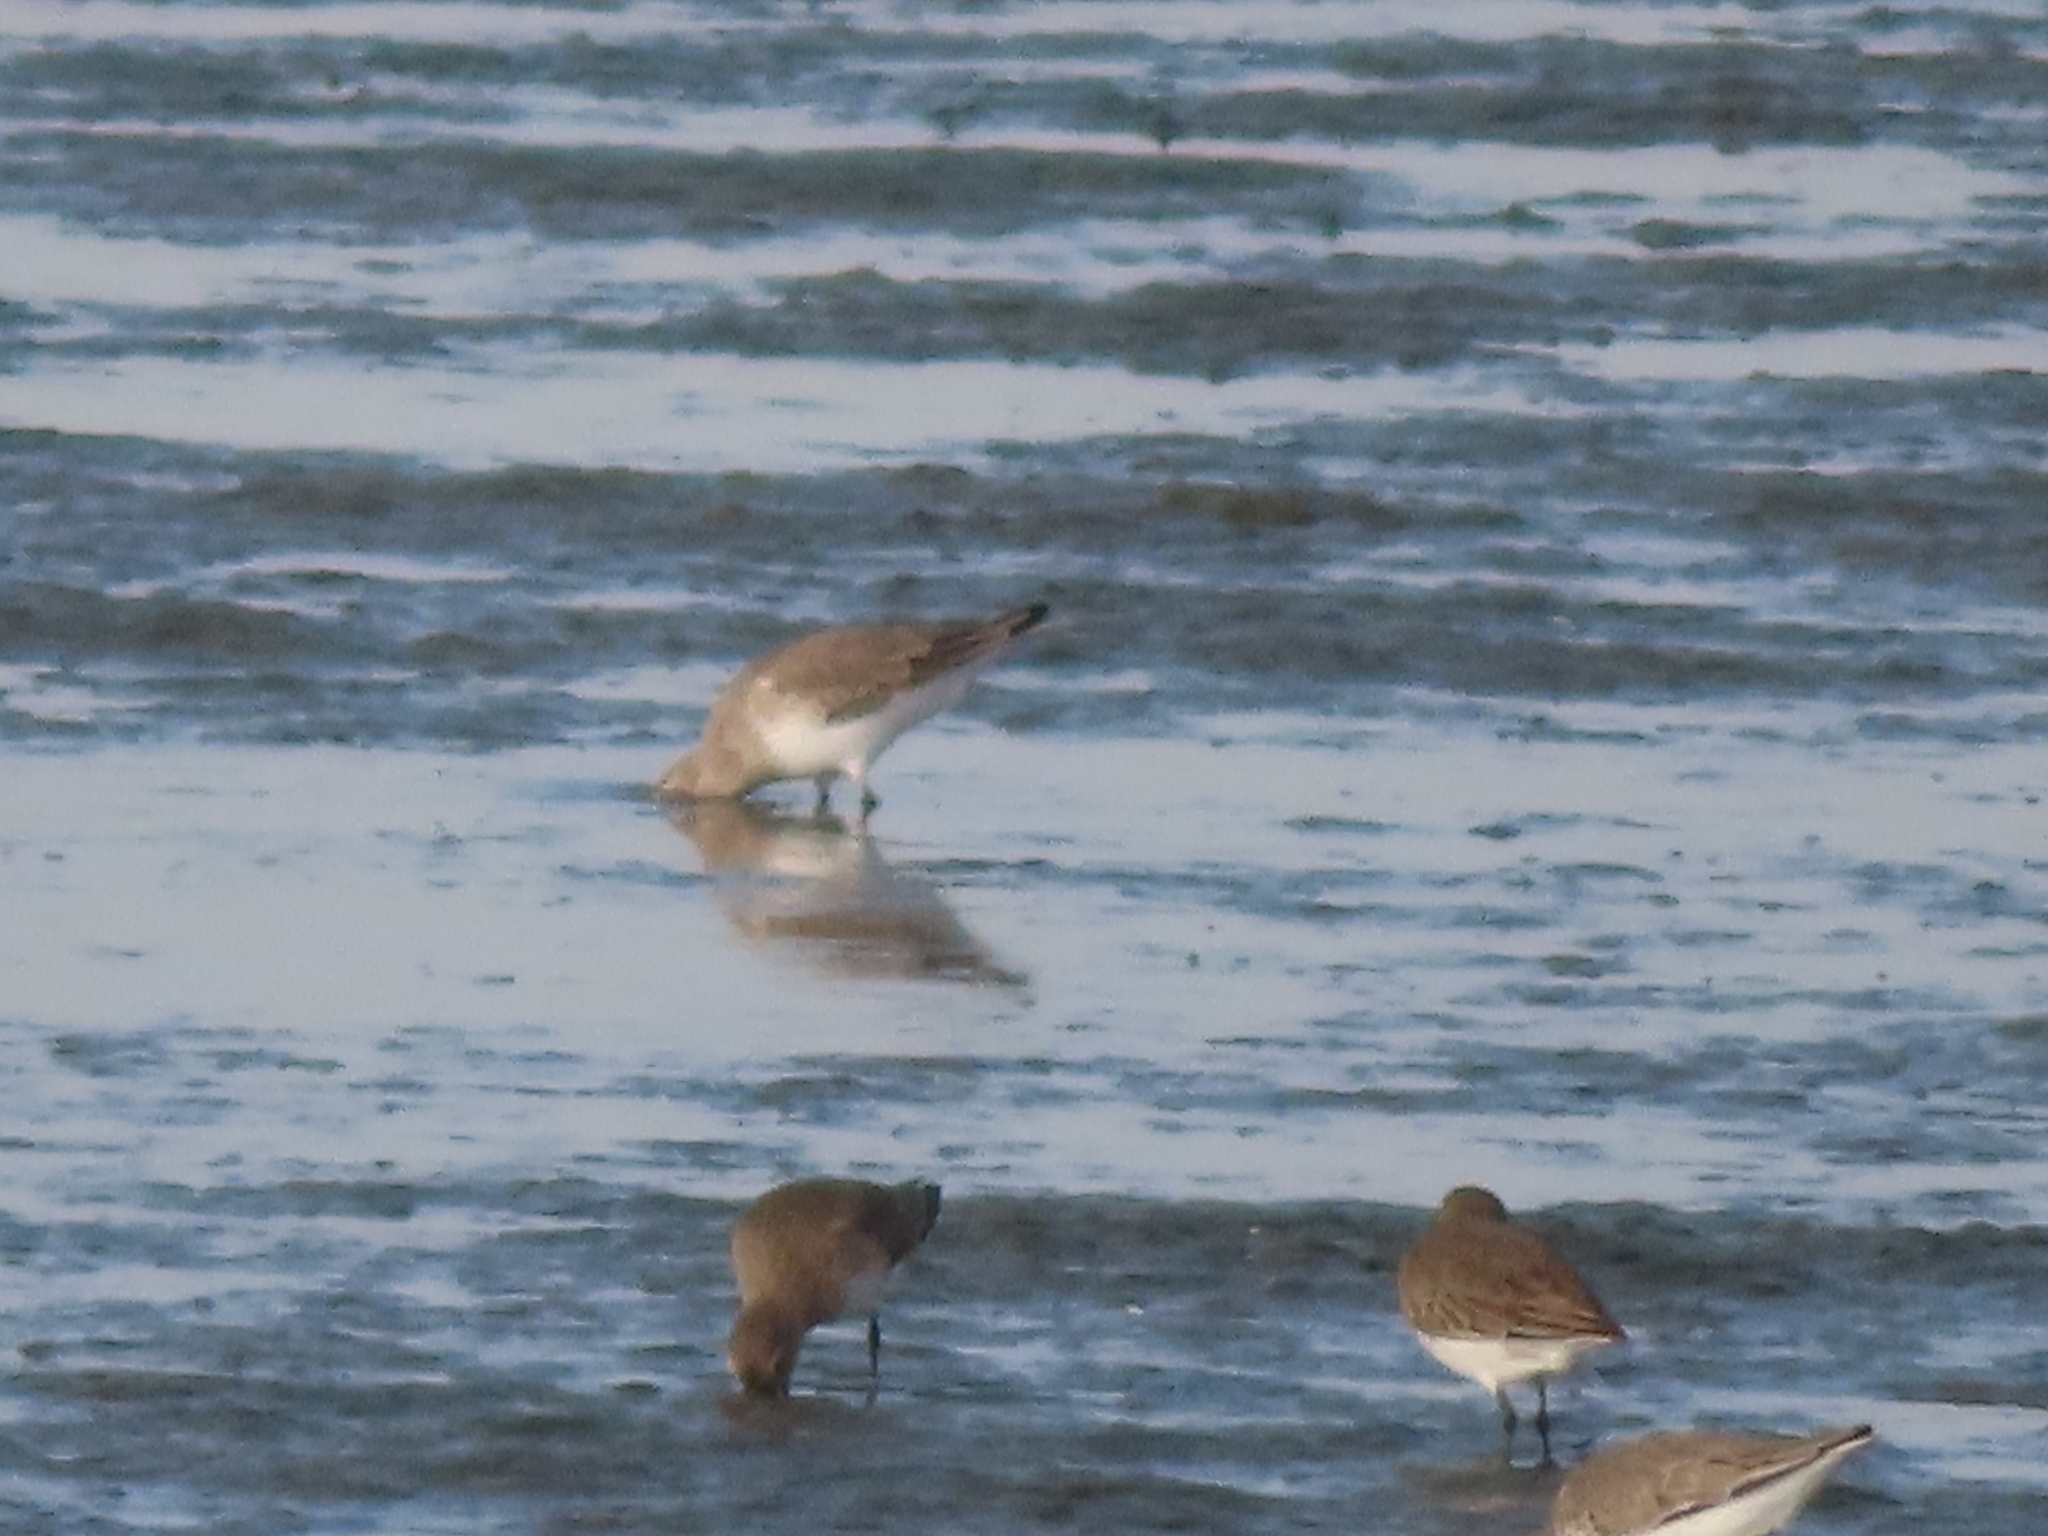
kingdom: Animalia
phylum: Chordata
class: Aves
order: Charadriiformes
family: Scolopacidae
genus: Calidris
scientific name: Calidris alpina
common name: Dunlin
